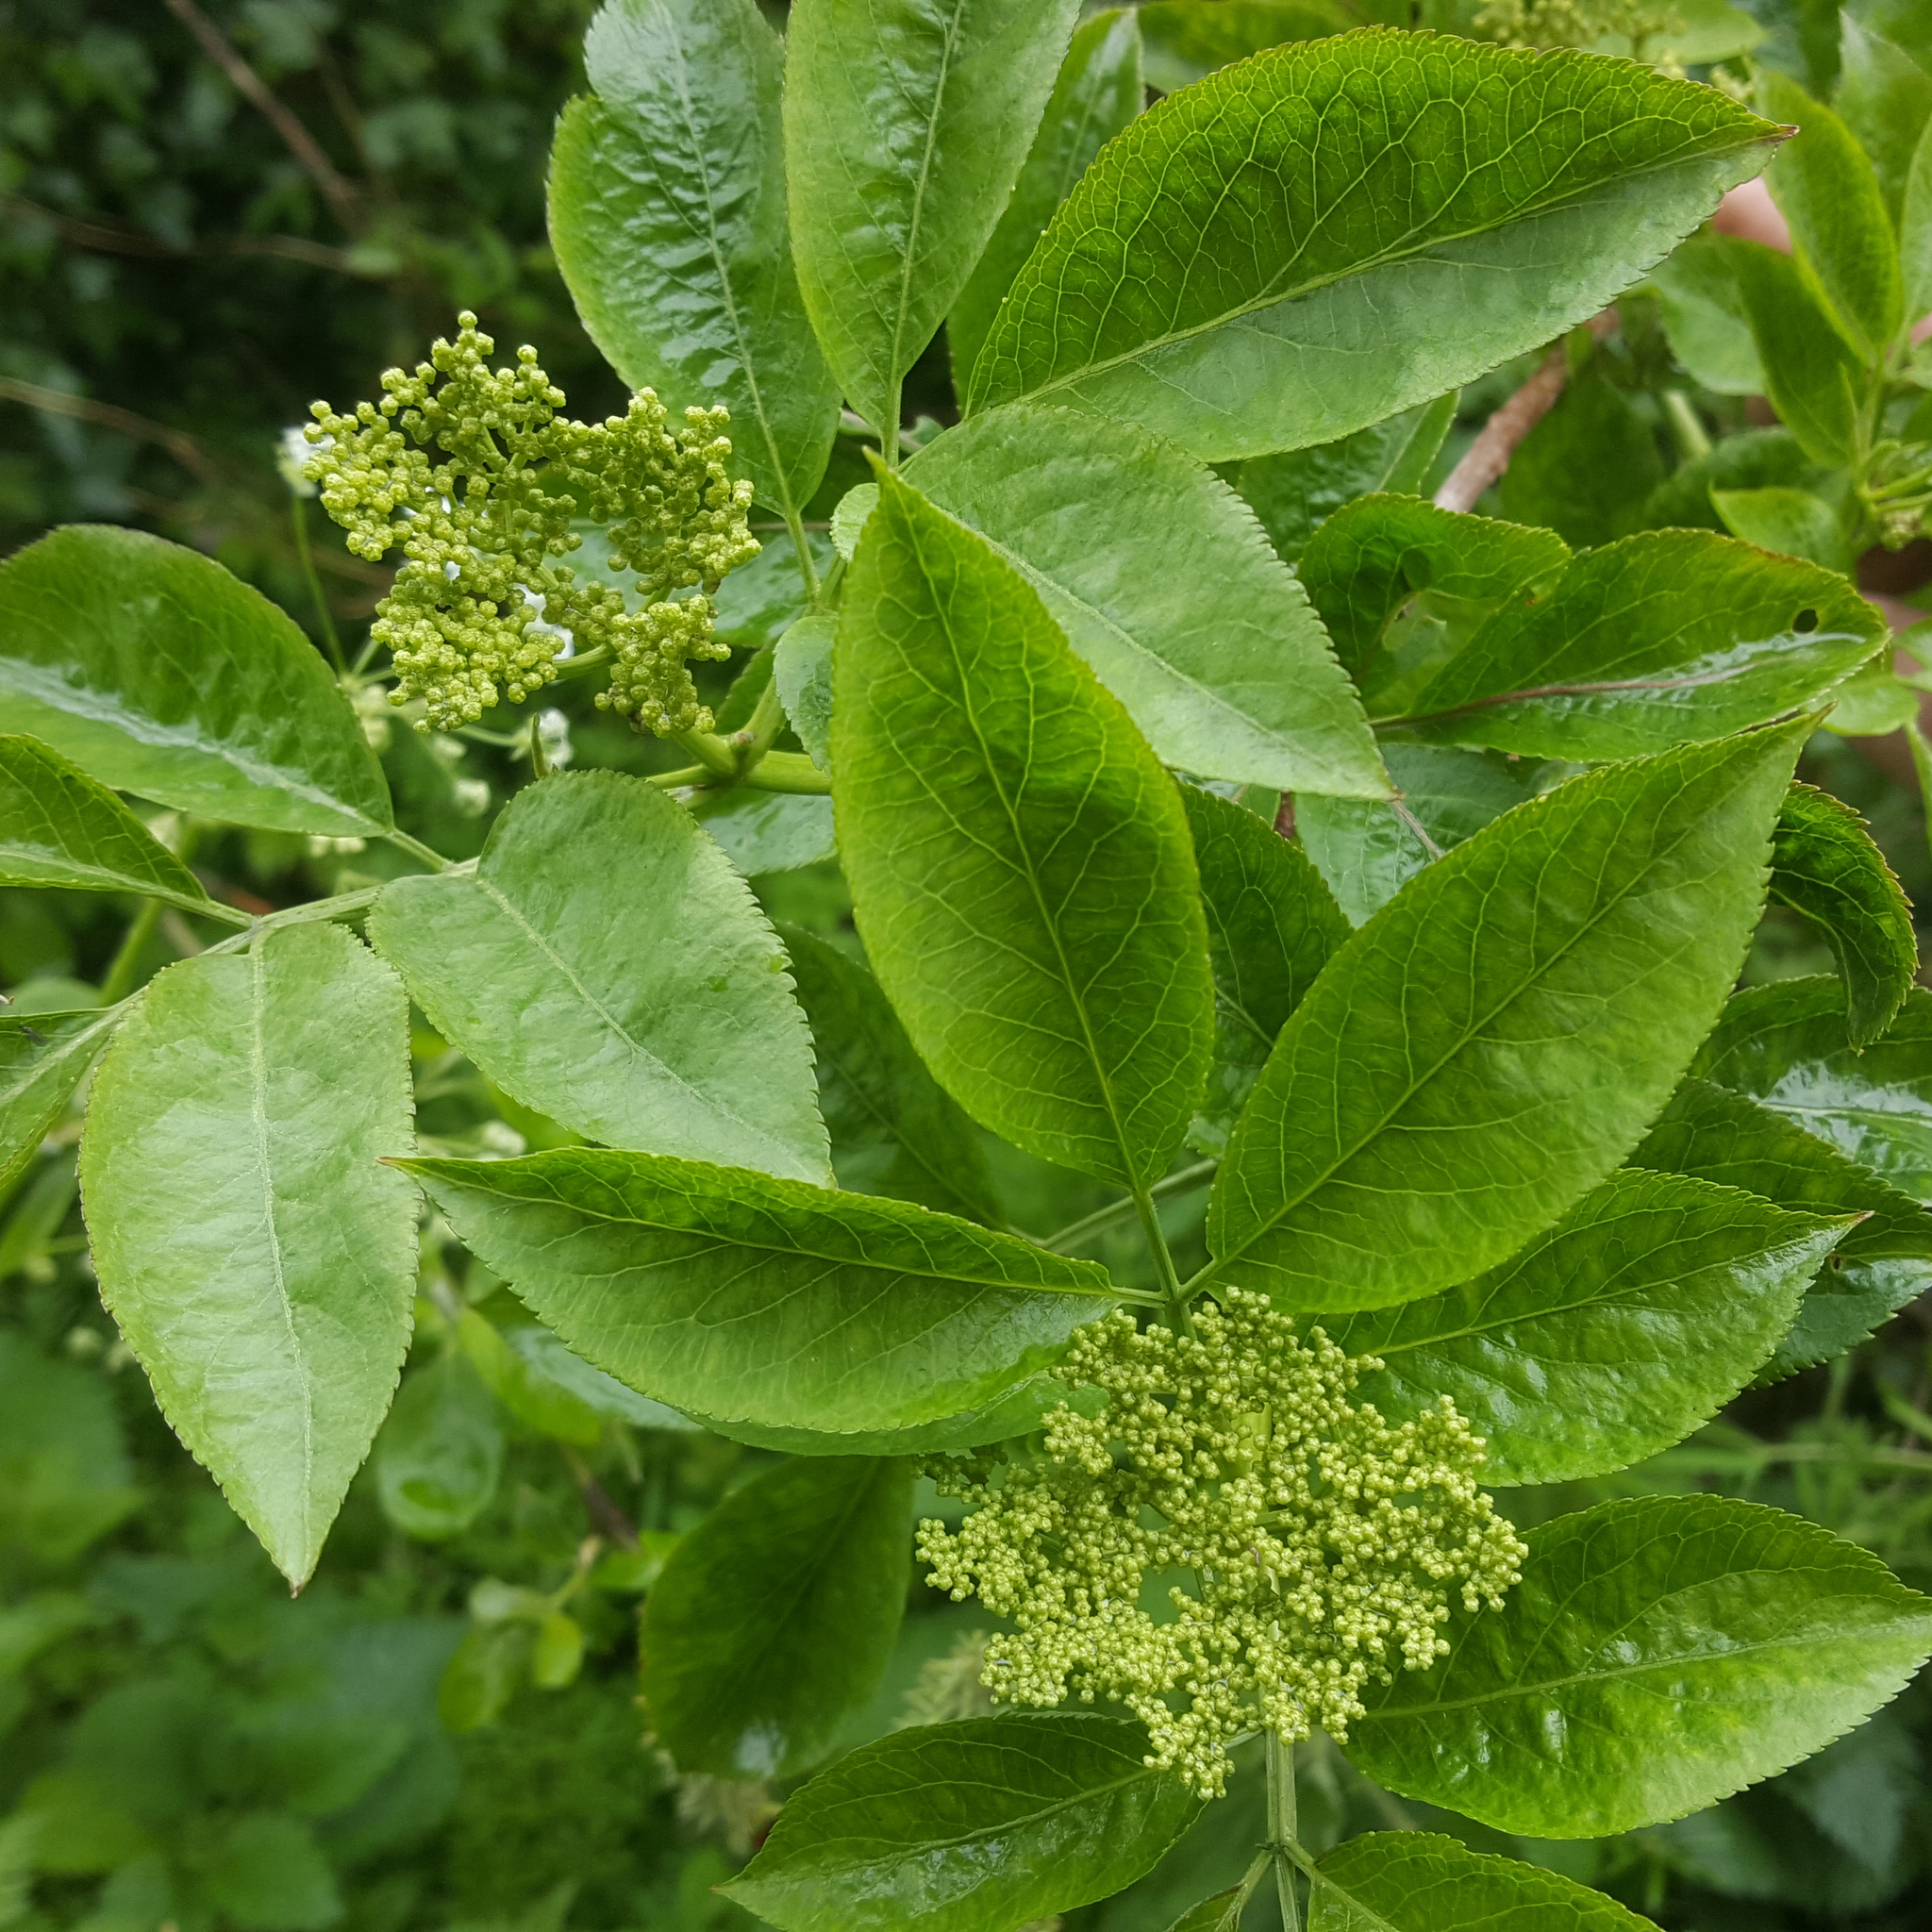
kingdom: Plantae
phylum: Tracheophyta
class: Magnoliopsida
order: Dipsacales
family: Viburnaceae
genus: Sambucus
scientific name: Sambucus nigra
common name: Elder
